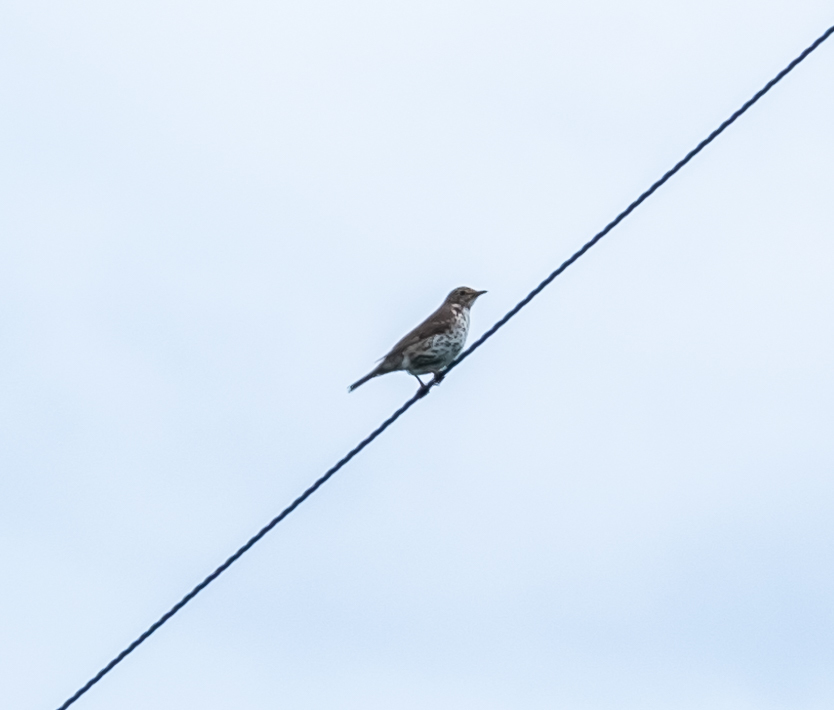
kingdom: Animalia
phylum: Chordata
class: Aves
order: Passeriformes
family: Turdidae
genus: Turdus
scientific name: Turdus philomelos
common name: Song thrush
